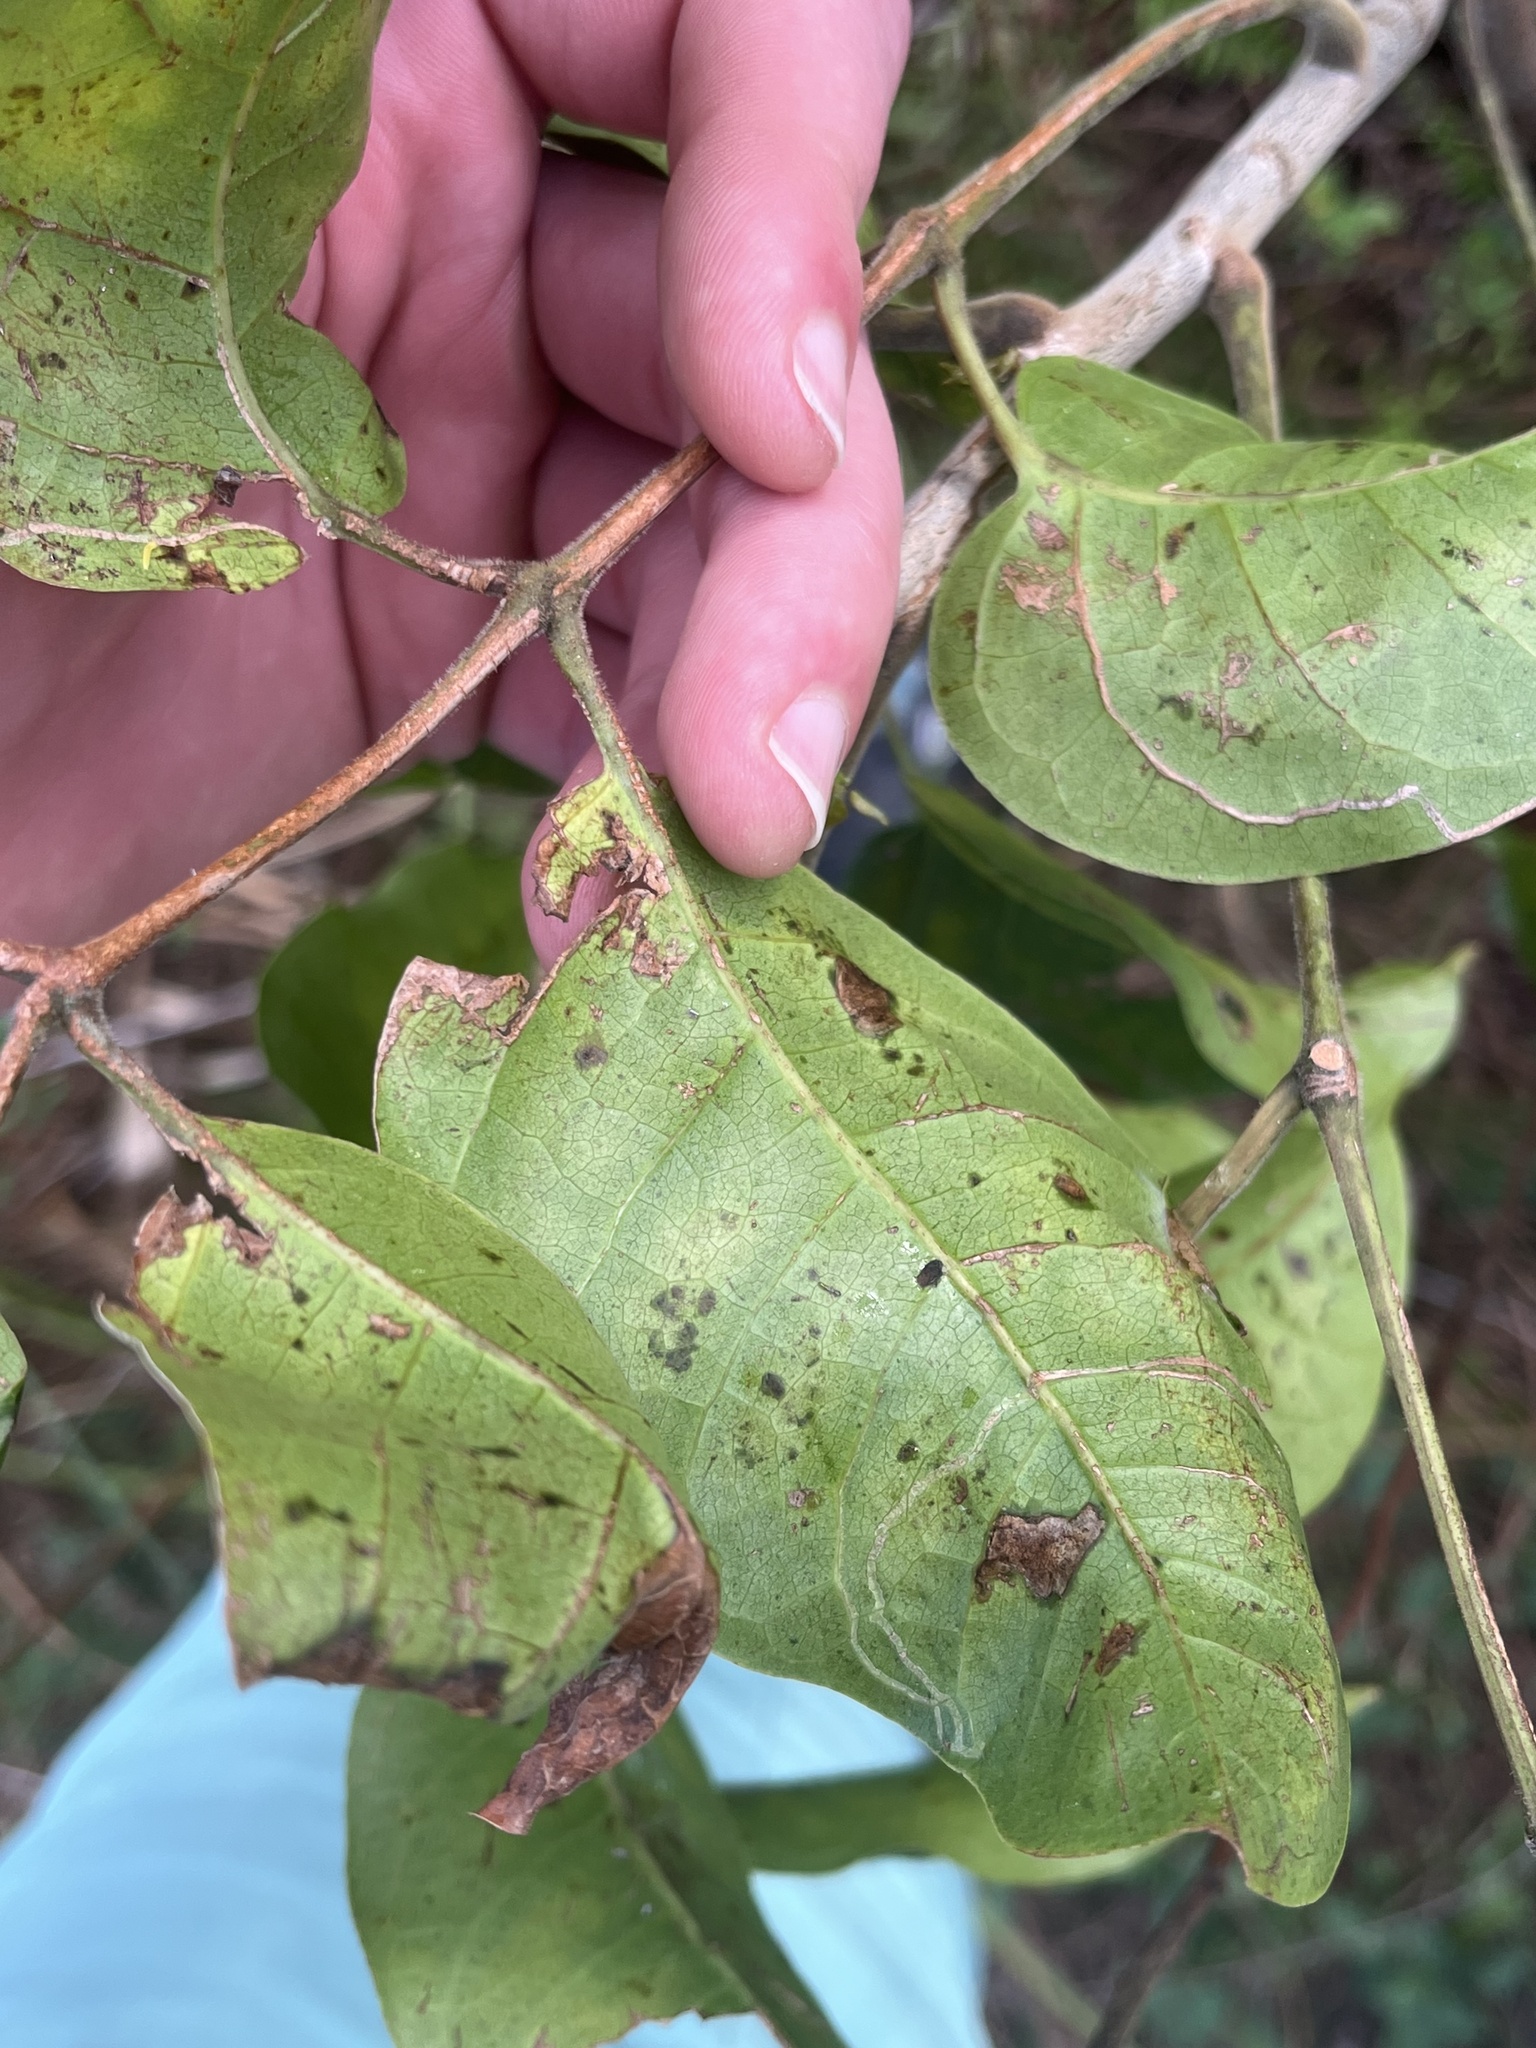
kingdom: Animalia
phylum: Arthropoda
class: Insecta
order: Lepidoptera
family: Gracillariidae
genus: Caloptilia
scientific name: Caloptilia burserella
